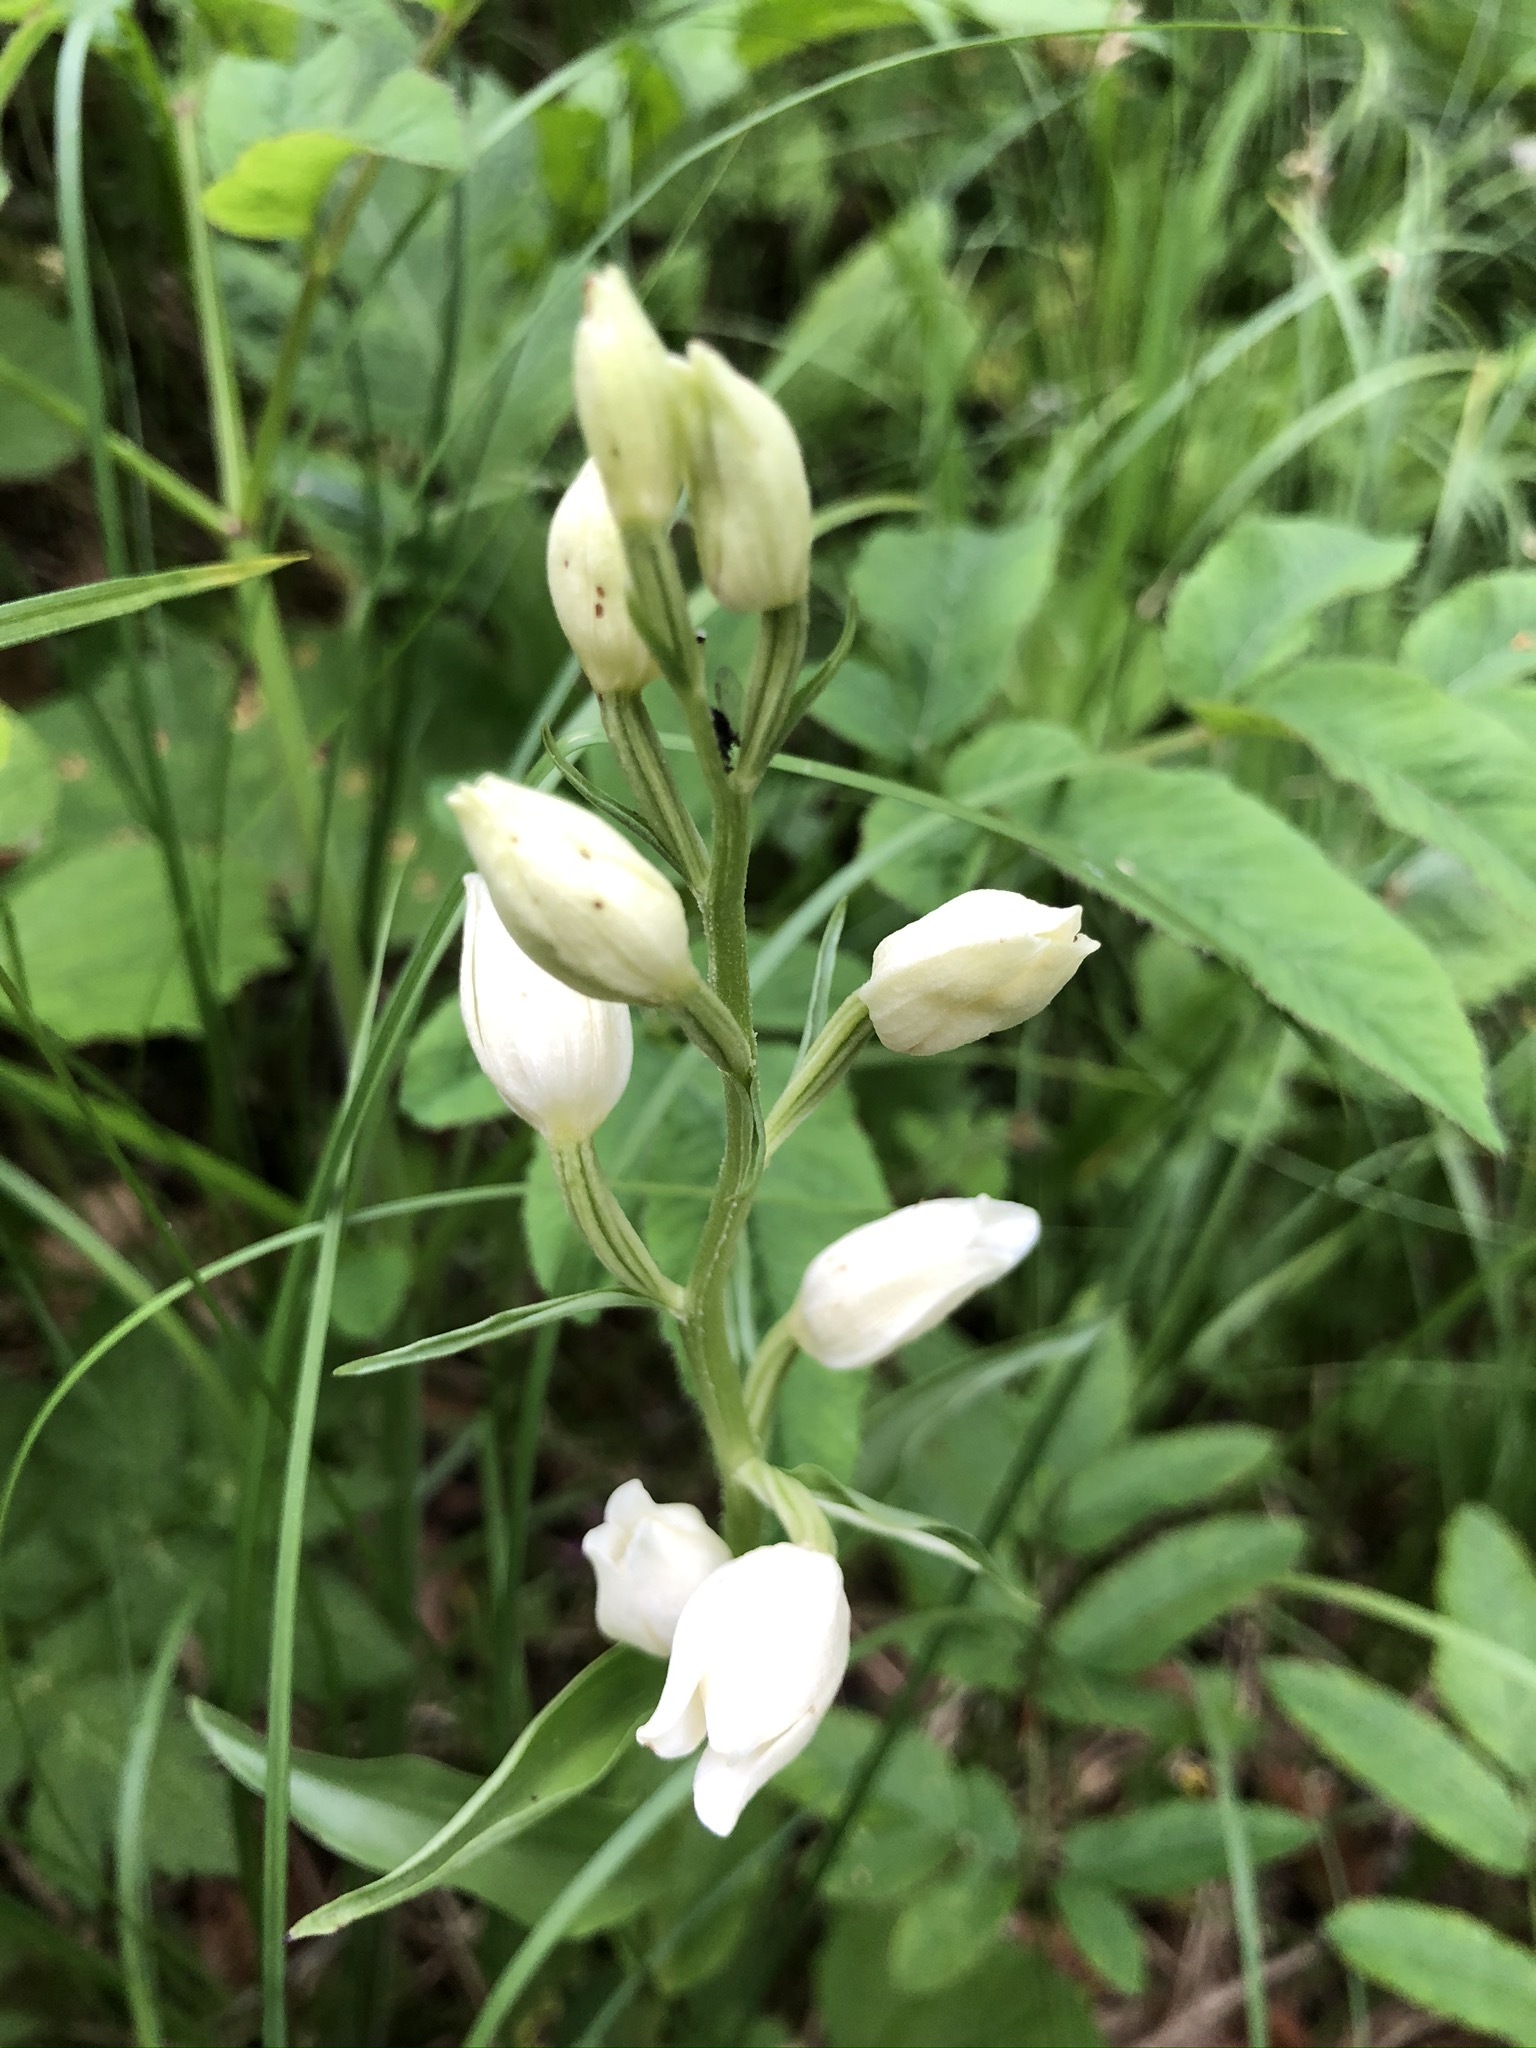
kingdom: Plantae
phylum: Tracheophyta
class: Liliopsida
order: Asparagales
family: Orchidaceae
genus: Cephalanthera
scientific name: Cephalanthera damasonium
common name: White helleborine
